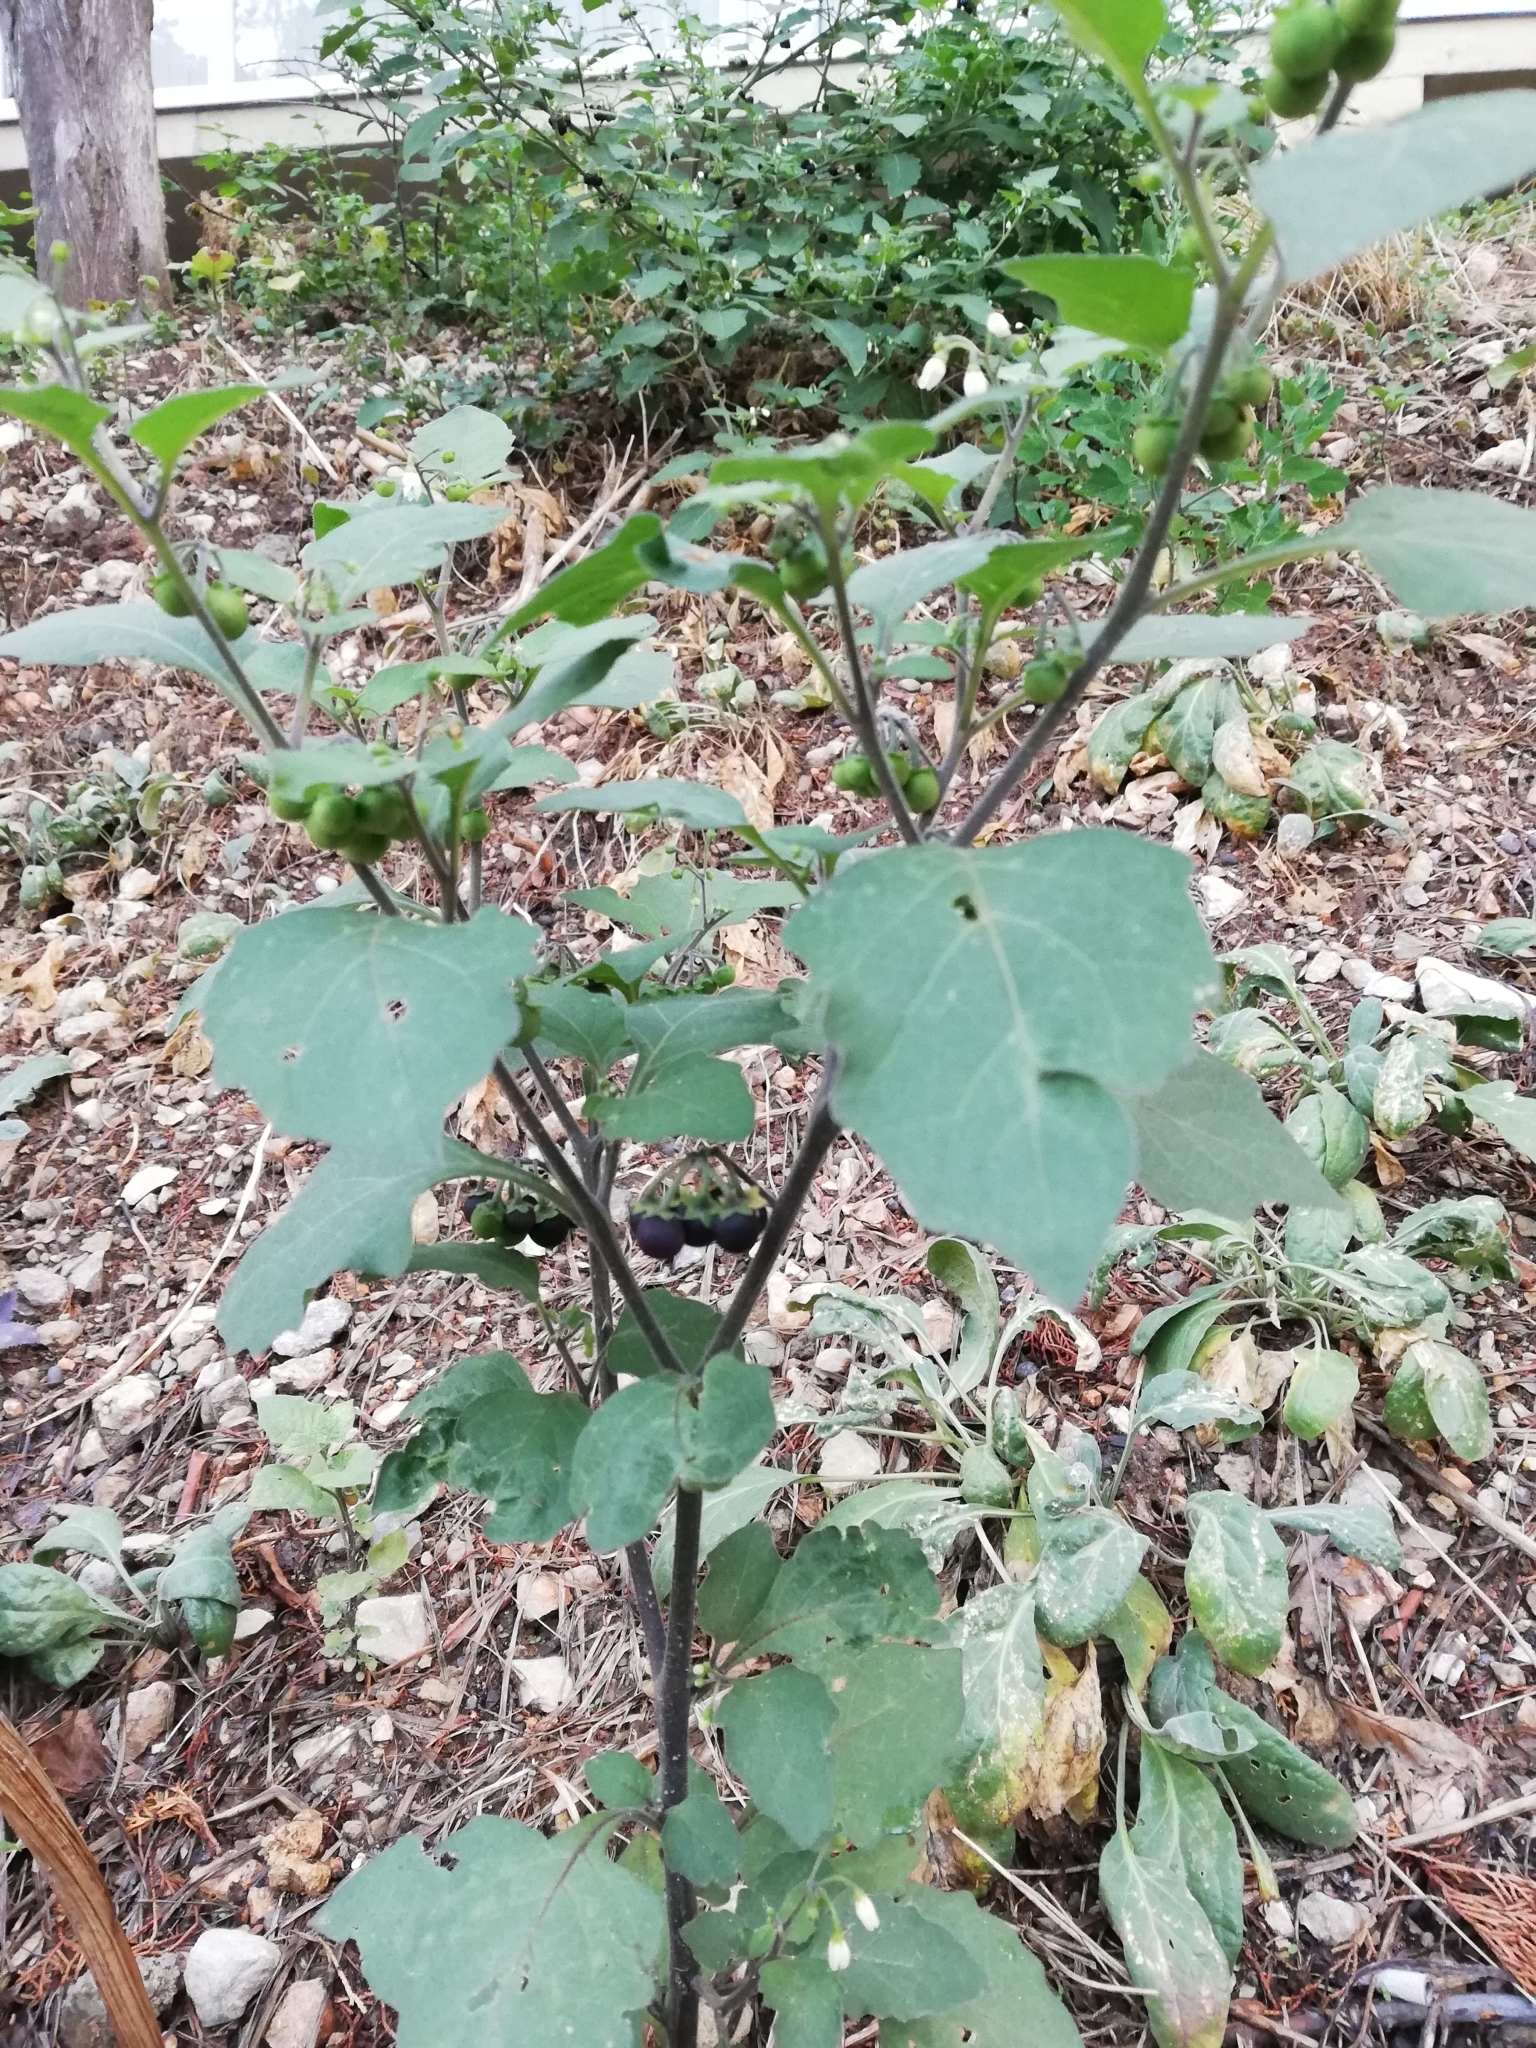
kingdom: Plantae
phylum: Tracheophyta
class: Magnoliopsida
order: Solanales
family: Solanaceae
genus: Solanum
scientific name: Solanum nigrum
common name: Black nightshade
